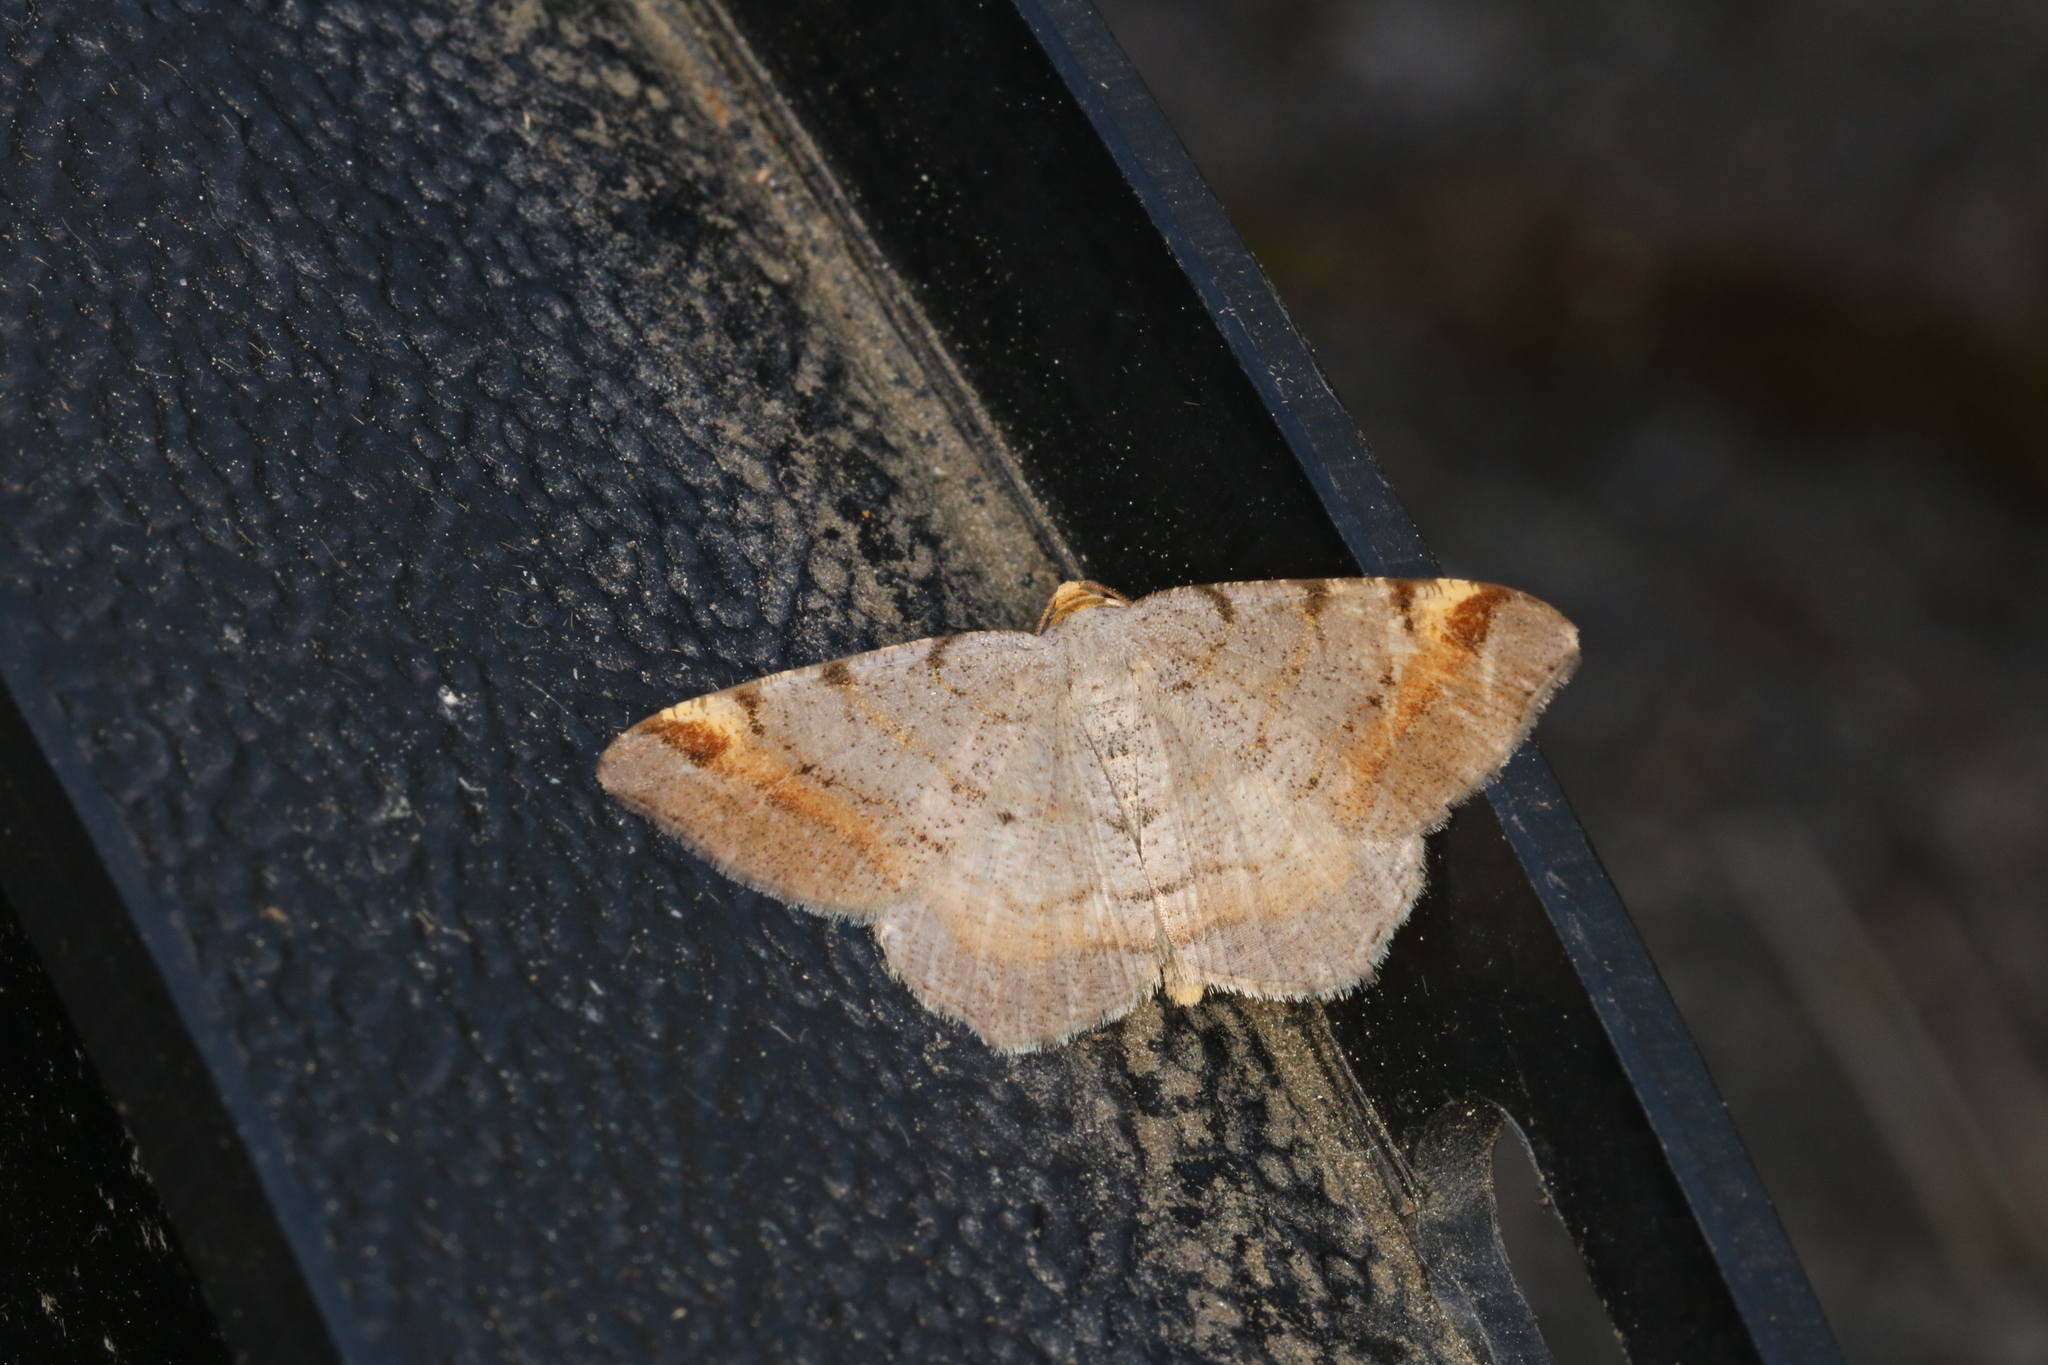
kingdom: Animalia
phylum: Arthropoda
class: Insecta
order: Lepidoptera
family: Geometridae
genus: Macaria
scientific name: Macaria liturata
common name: Tawny-barred angle
